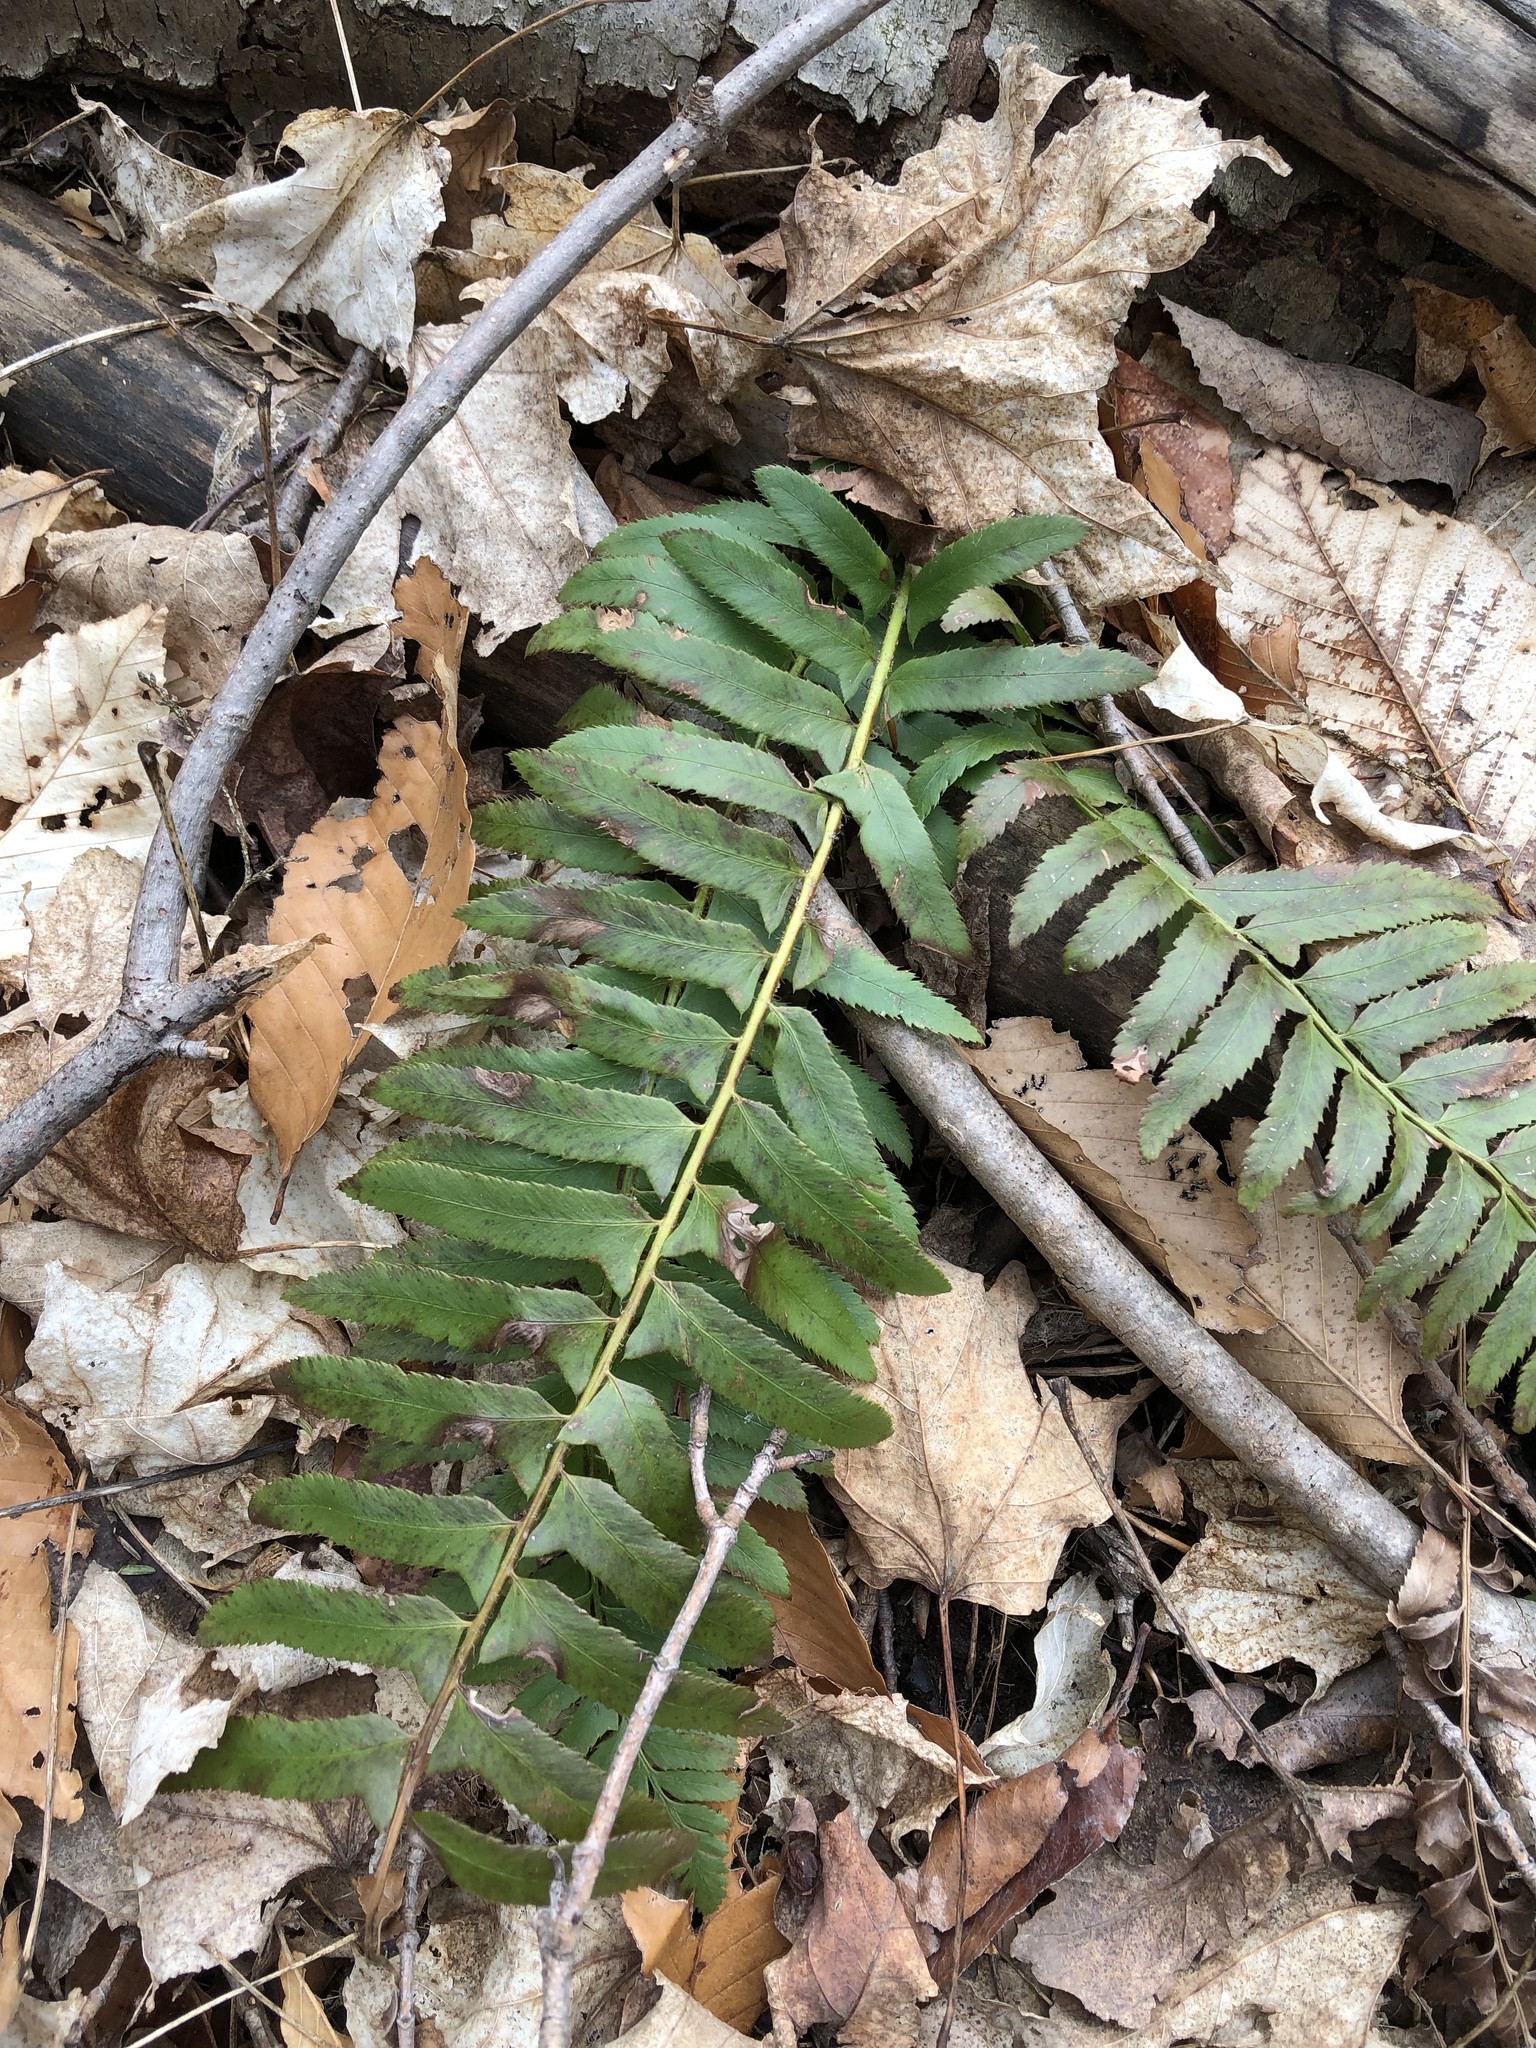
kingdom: Plantae
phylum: Tracheophyta
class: Polypodiopsida
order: Polypodiales
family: Dryopteridaceae
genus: Polystichum
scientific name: Polystichum acrostichoides
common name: Christmas fern
